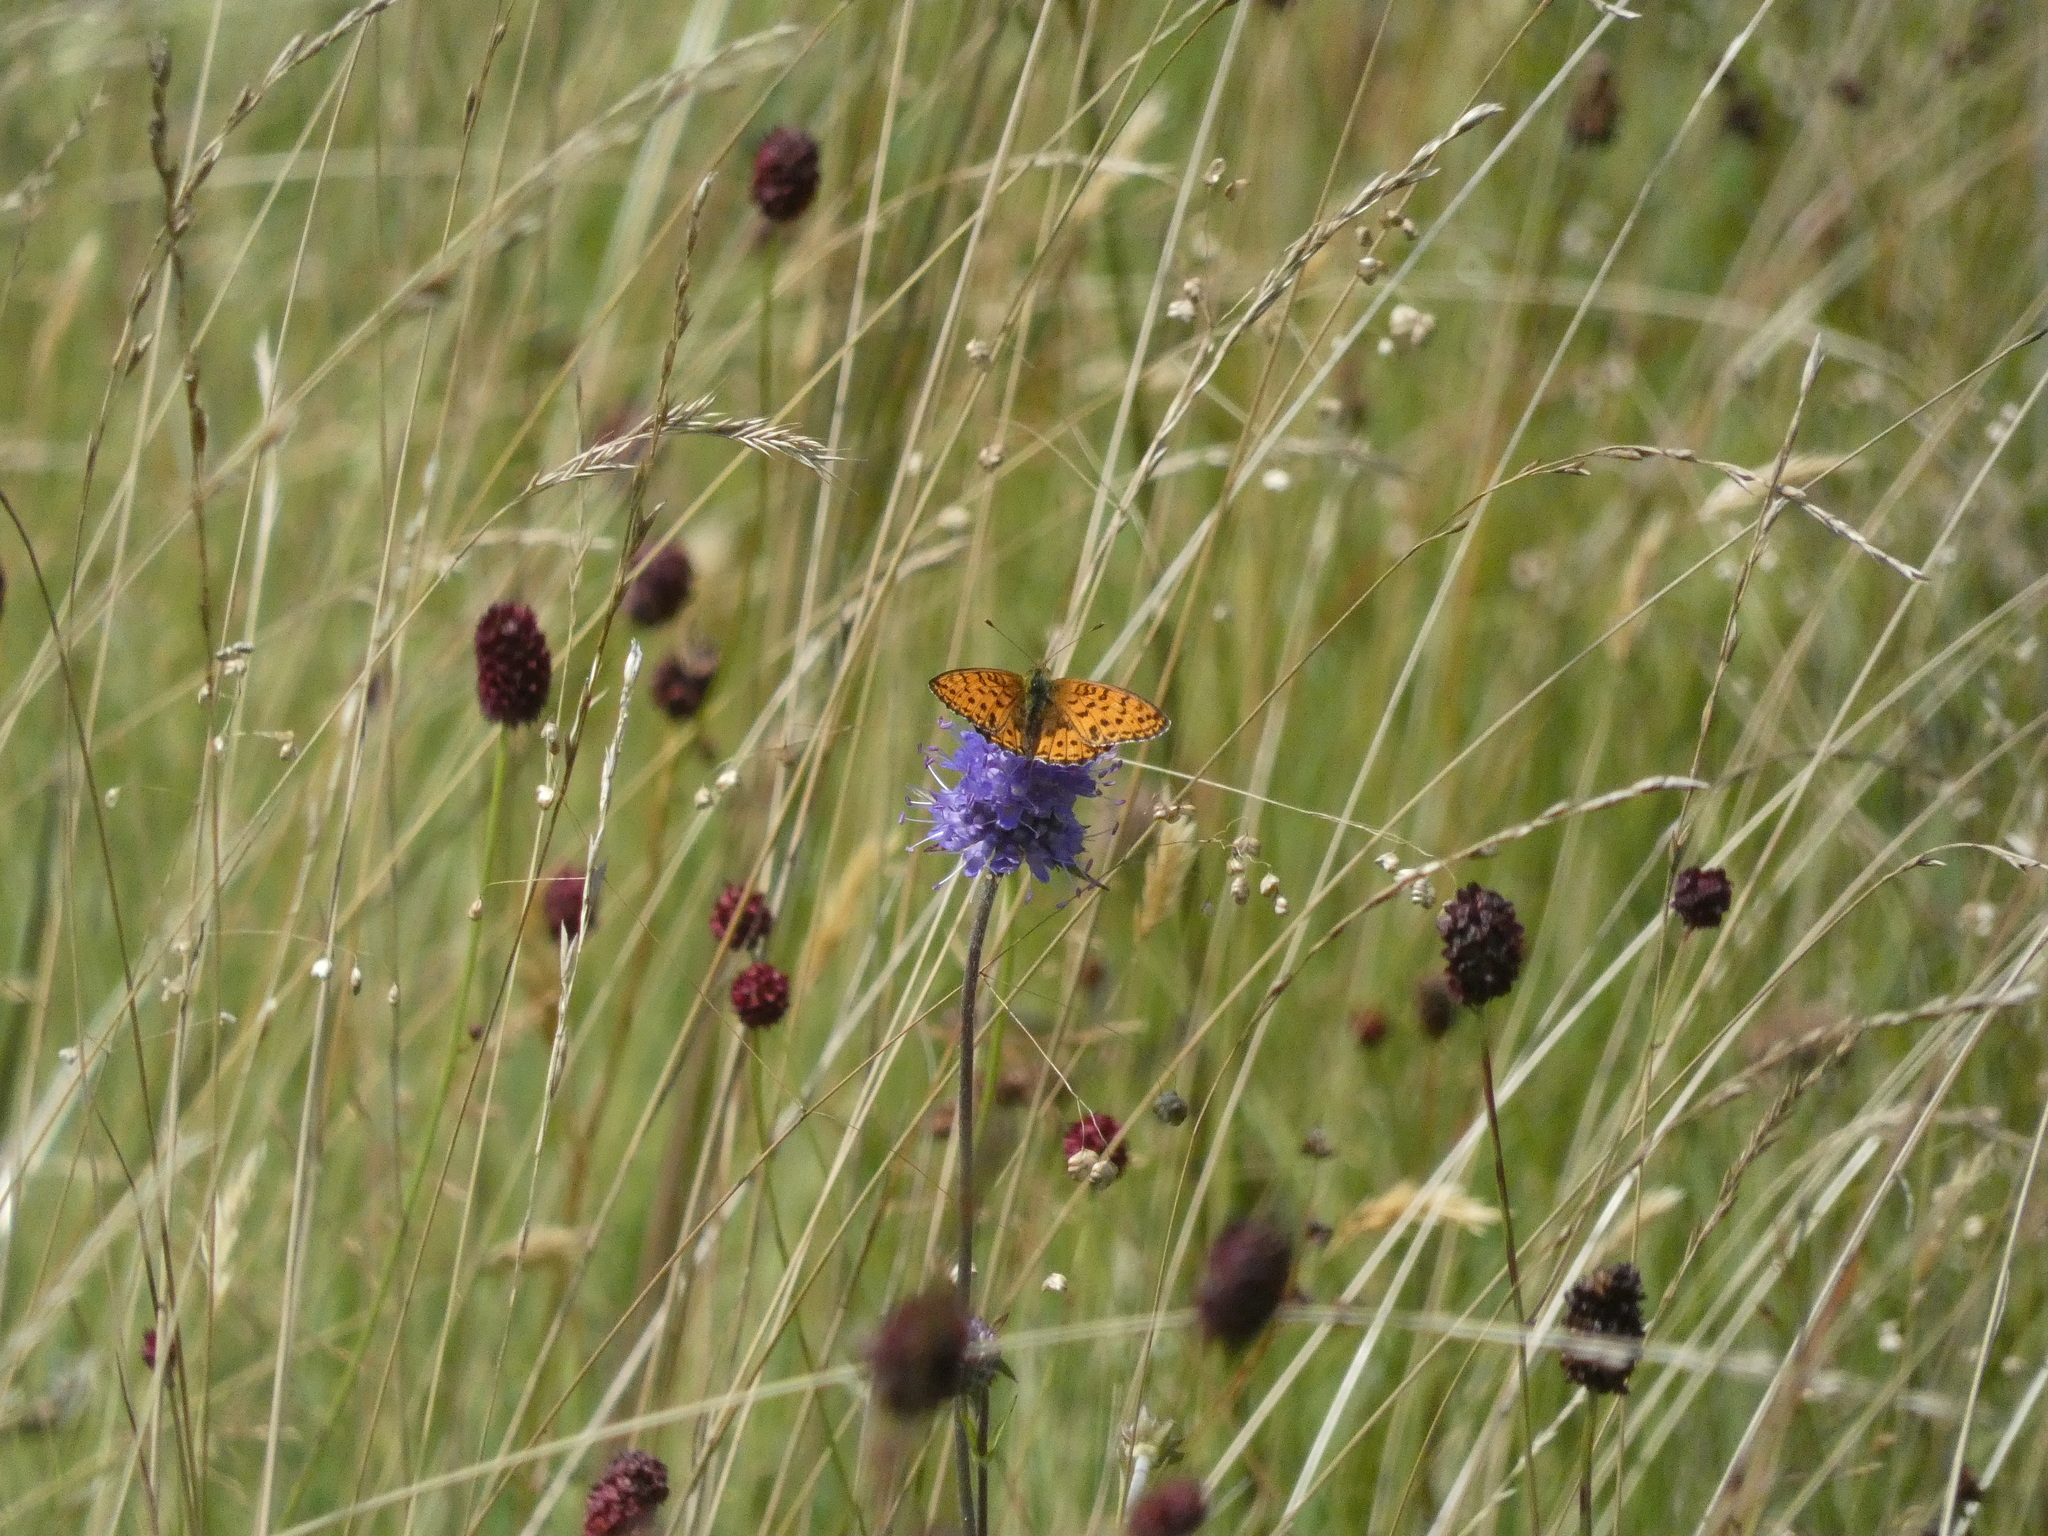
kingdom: Animalia
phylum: Arthropoda
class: Insecta
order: Lepidoptera
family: Nymphalidae
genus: Brenthis
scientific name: Brenthis ino
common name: Lesser marbled fritillary
